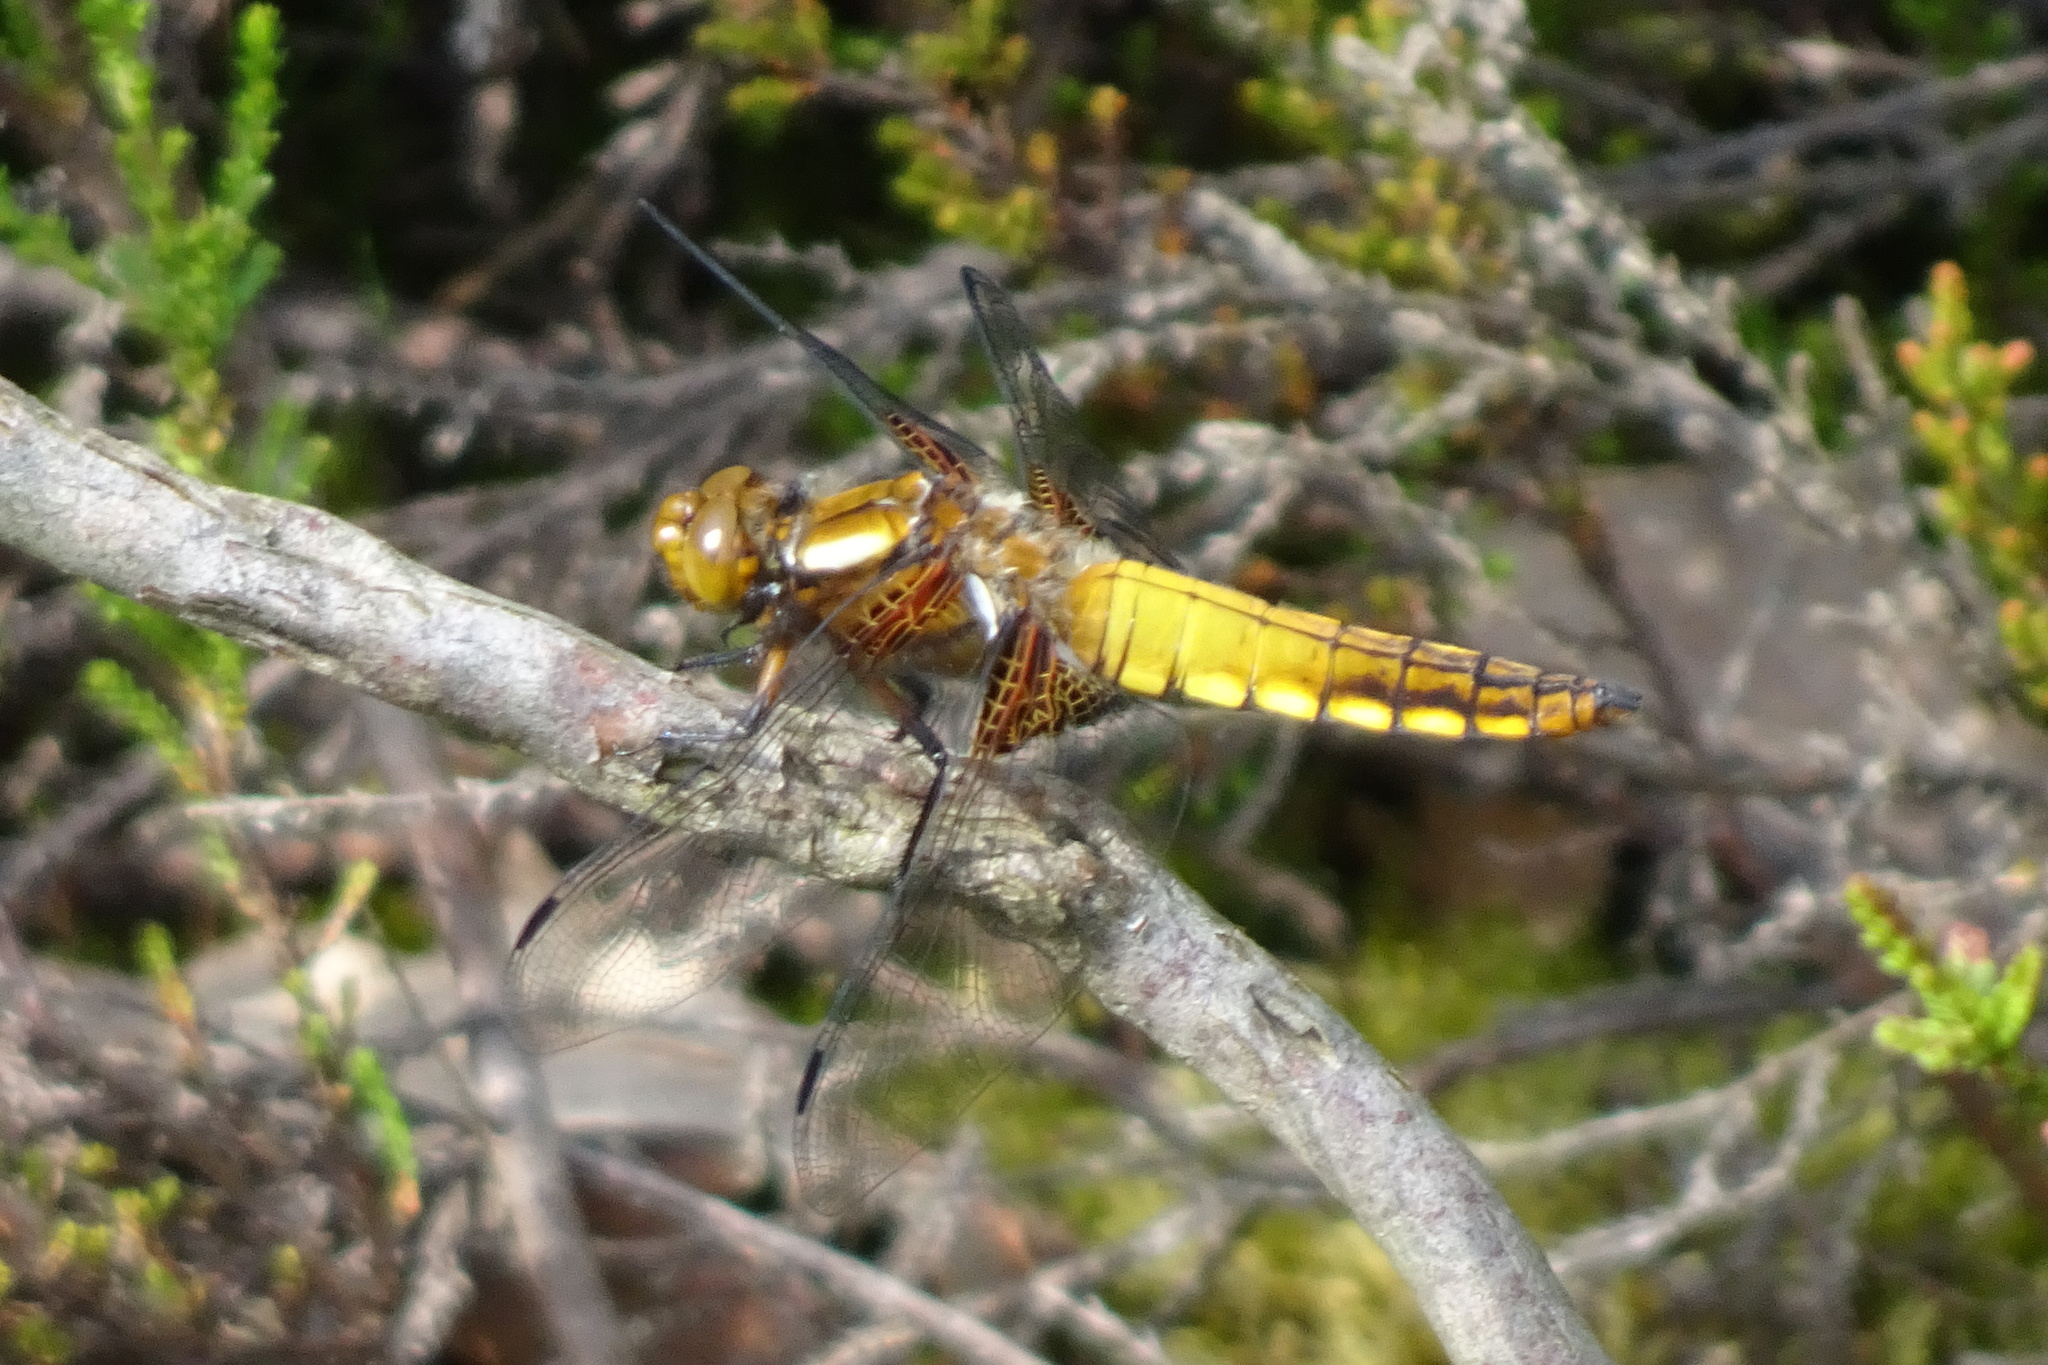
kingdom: Animalia
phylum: Arthropoda
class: Insecta
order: Odonata
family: Libellulidae
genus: Libellula
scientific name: Libellula depressa
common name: Broad-bodied chaser
